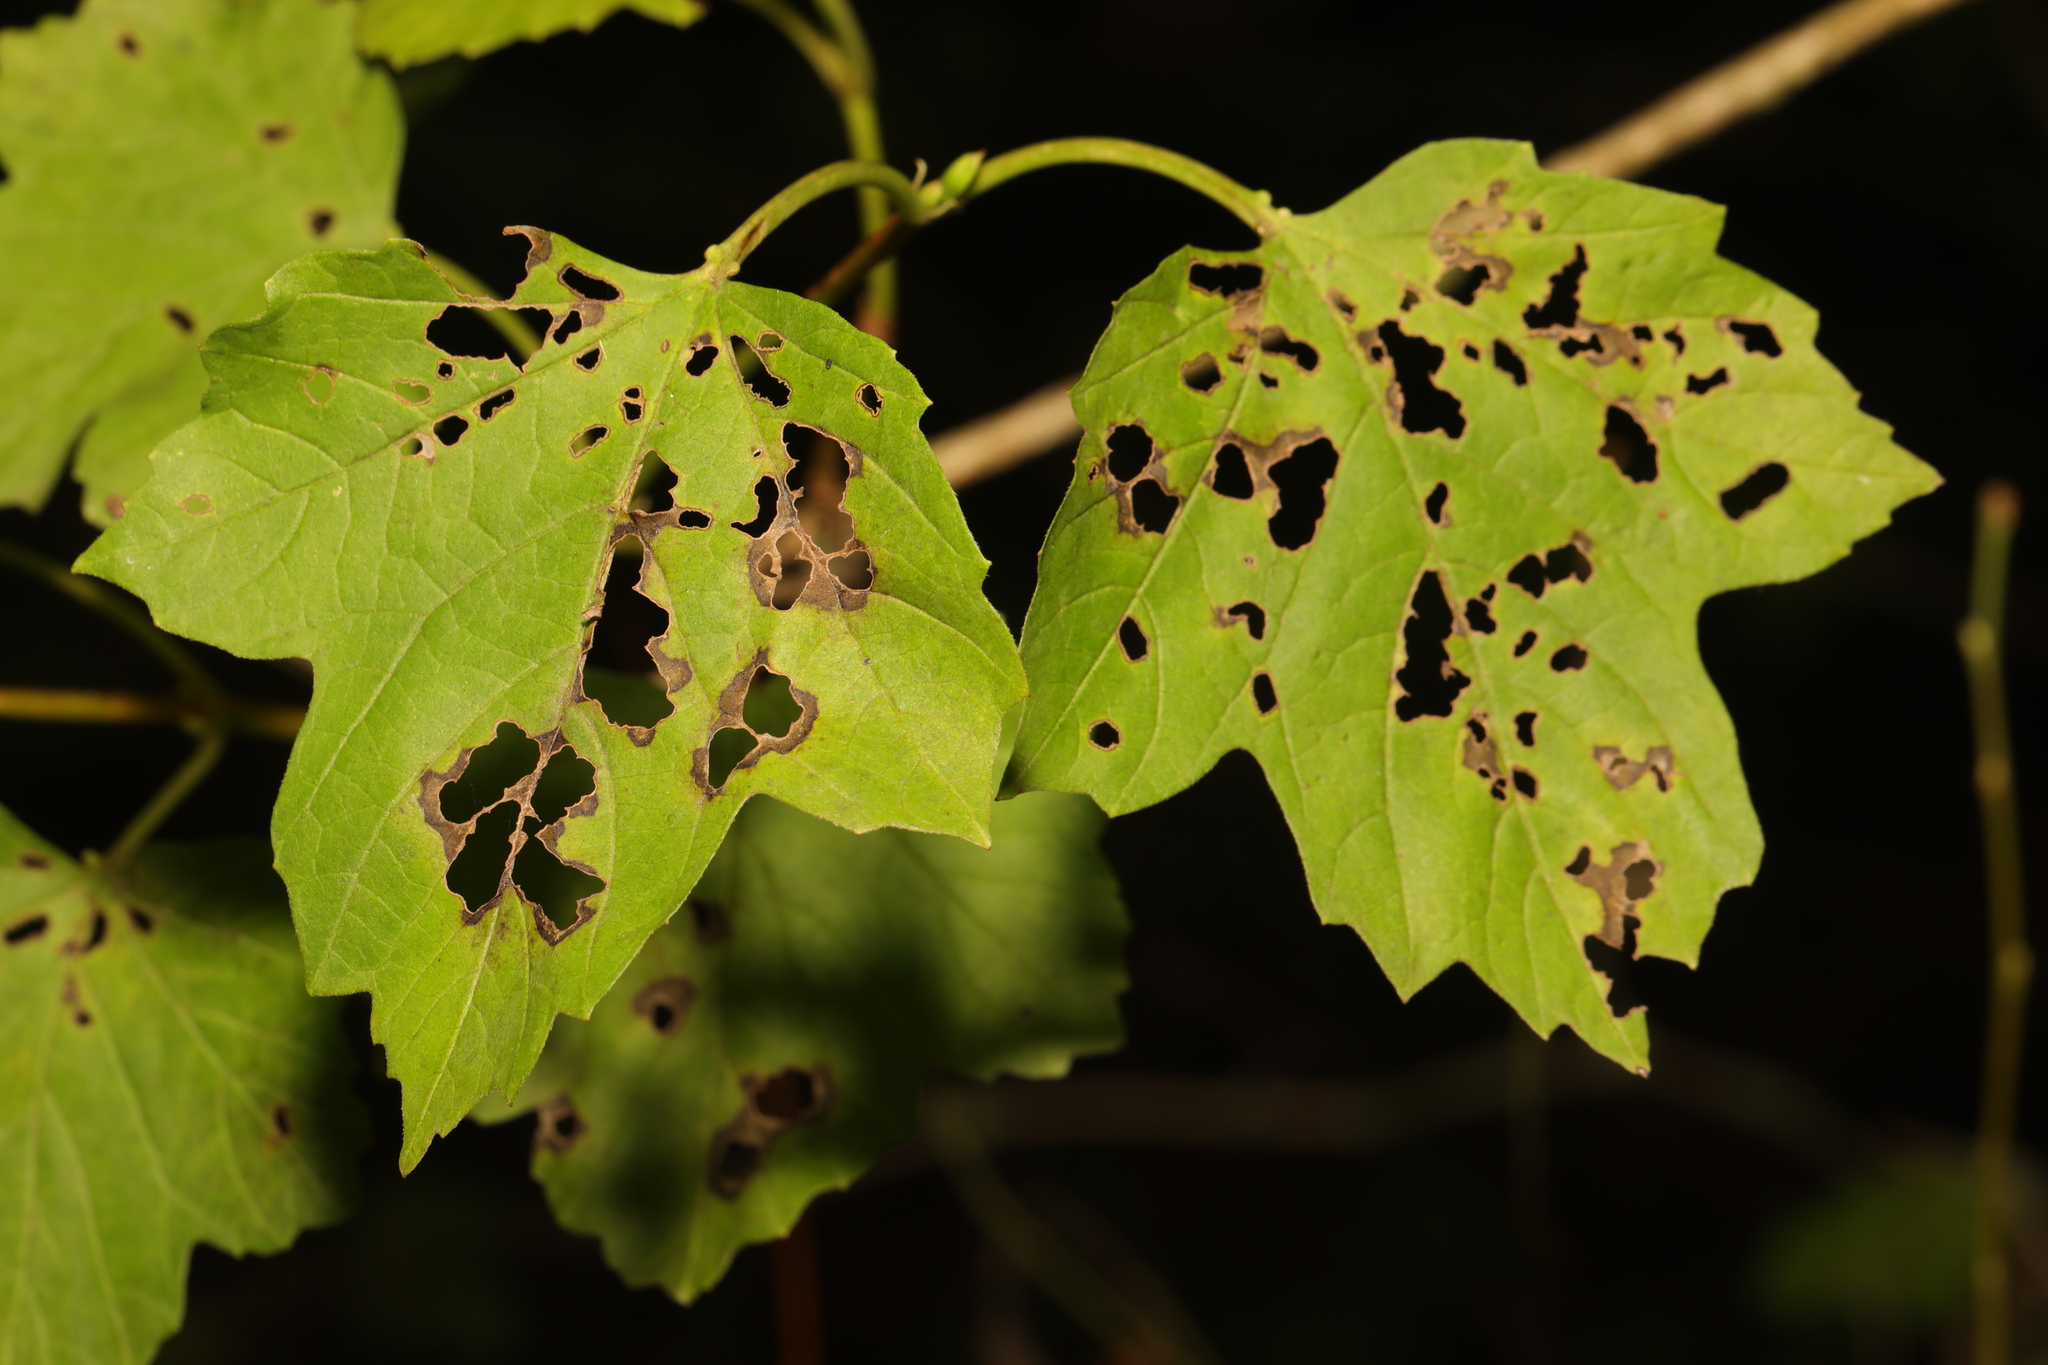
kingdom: Plantae
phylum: Tracheophyta
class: Magnoliopsida
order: Dipsacales
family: Viburnaceae
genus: Viburnum
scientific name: Viburnum opulus
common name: Guelder-rose
